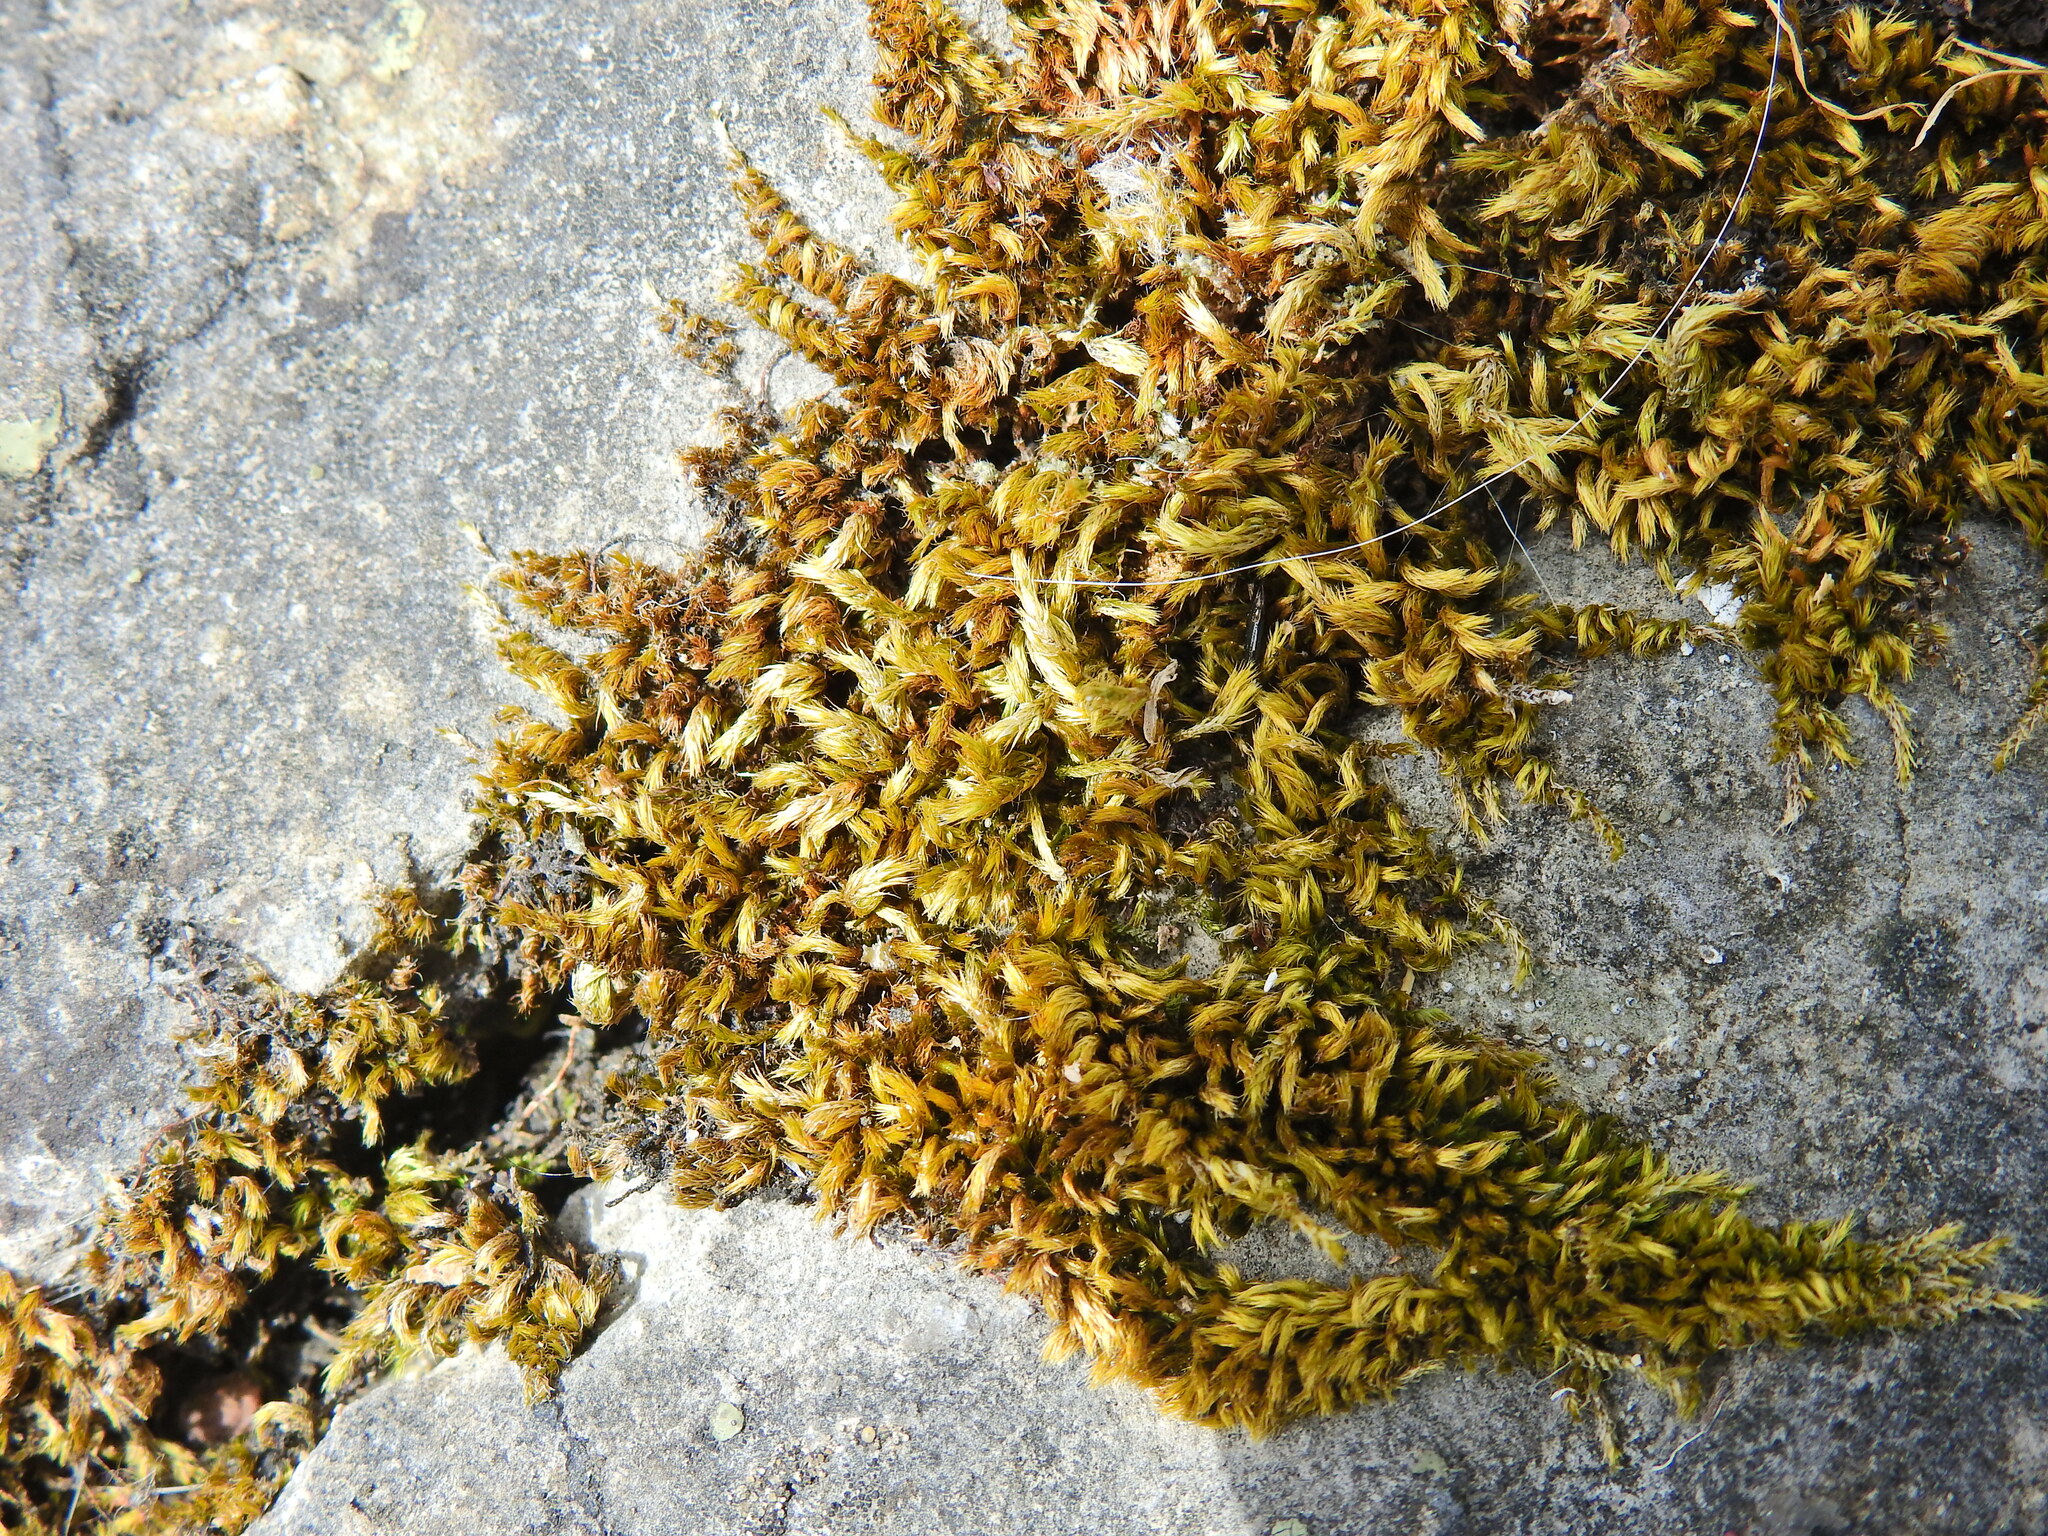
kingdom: Plantae
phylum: Bryophyta
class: Bryopsida
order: Hypnales
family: Brachytheciaceae
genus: Homalothecium
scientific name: Homalothecium sericeum
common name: Silky wall feather-moss
